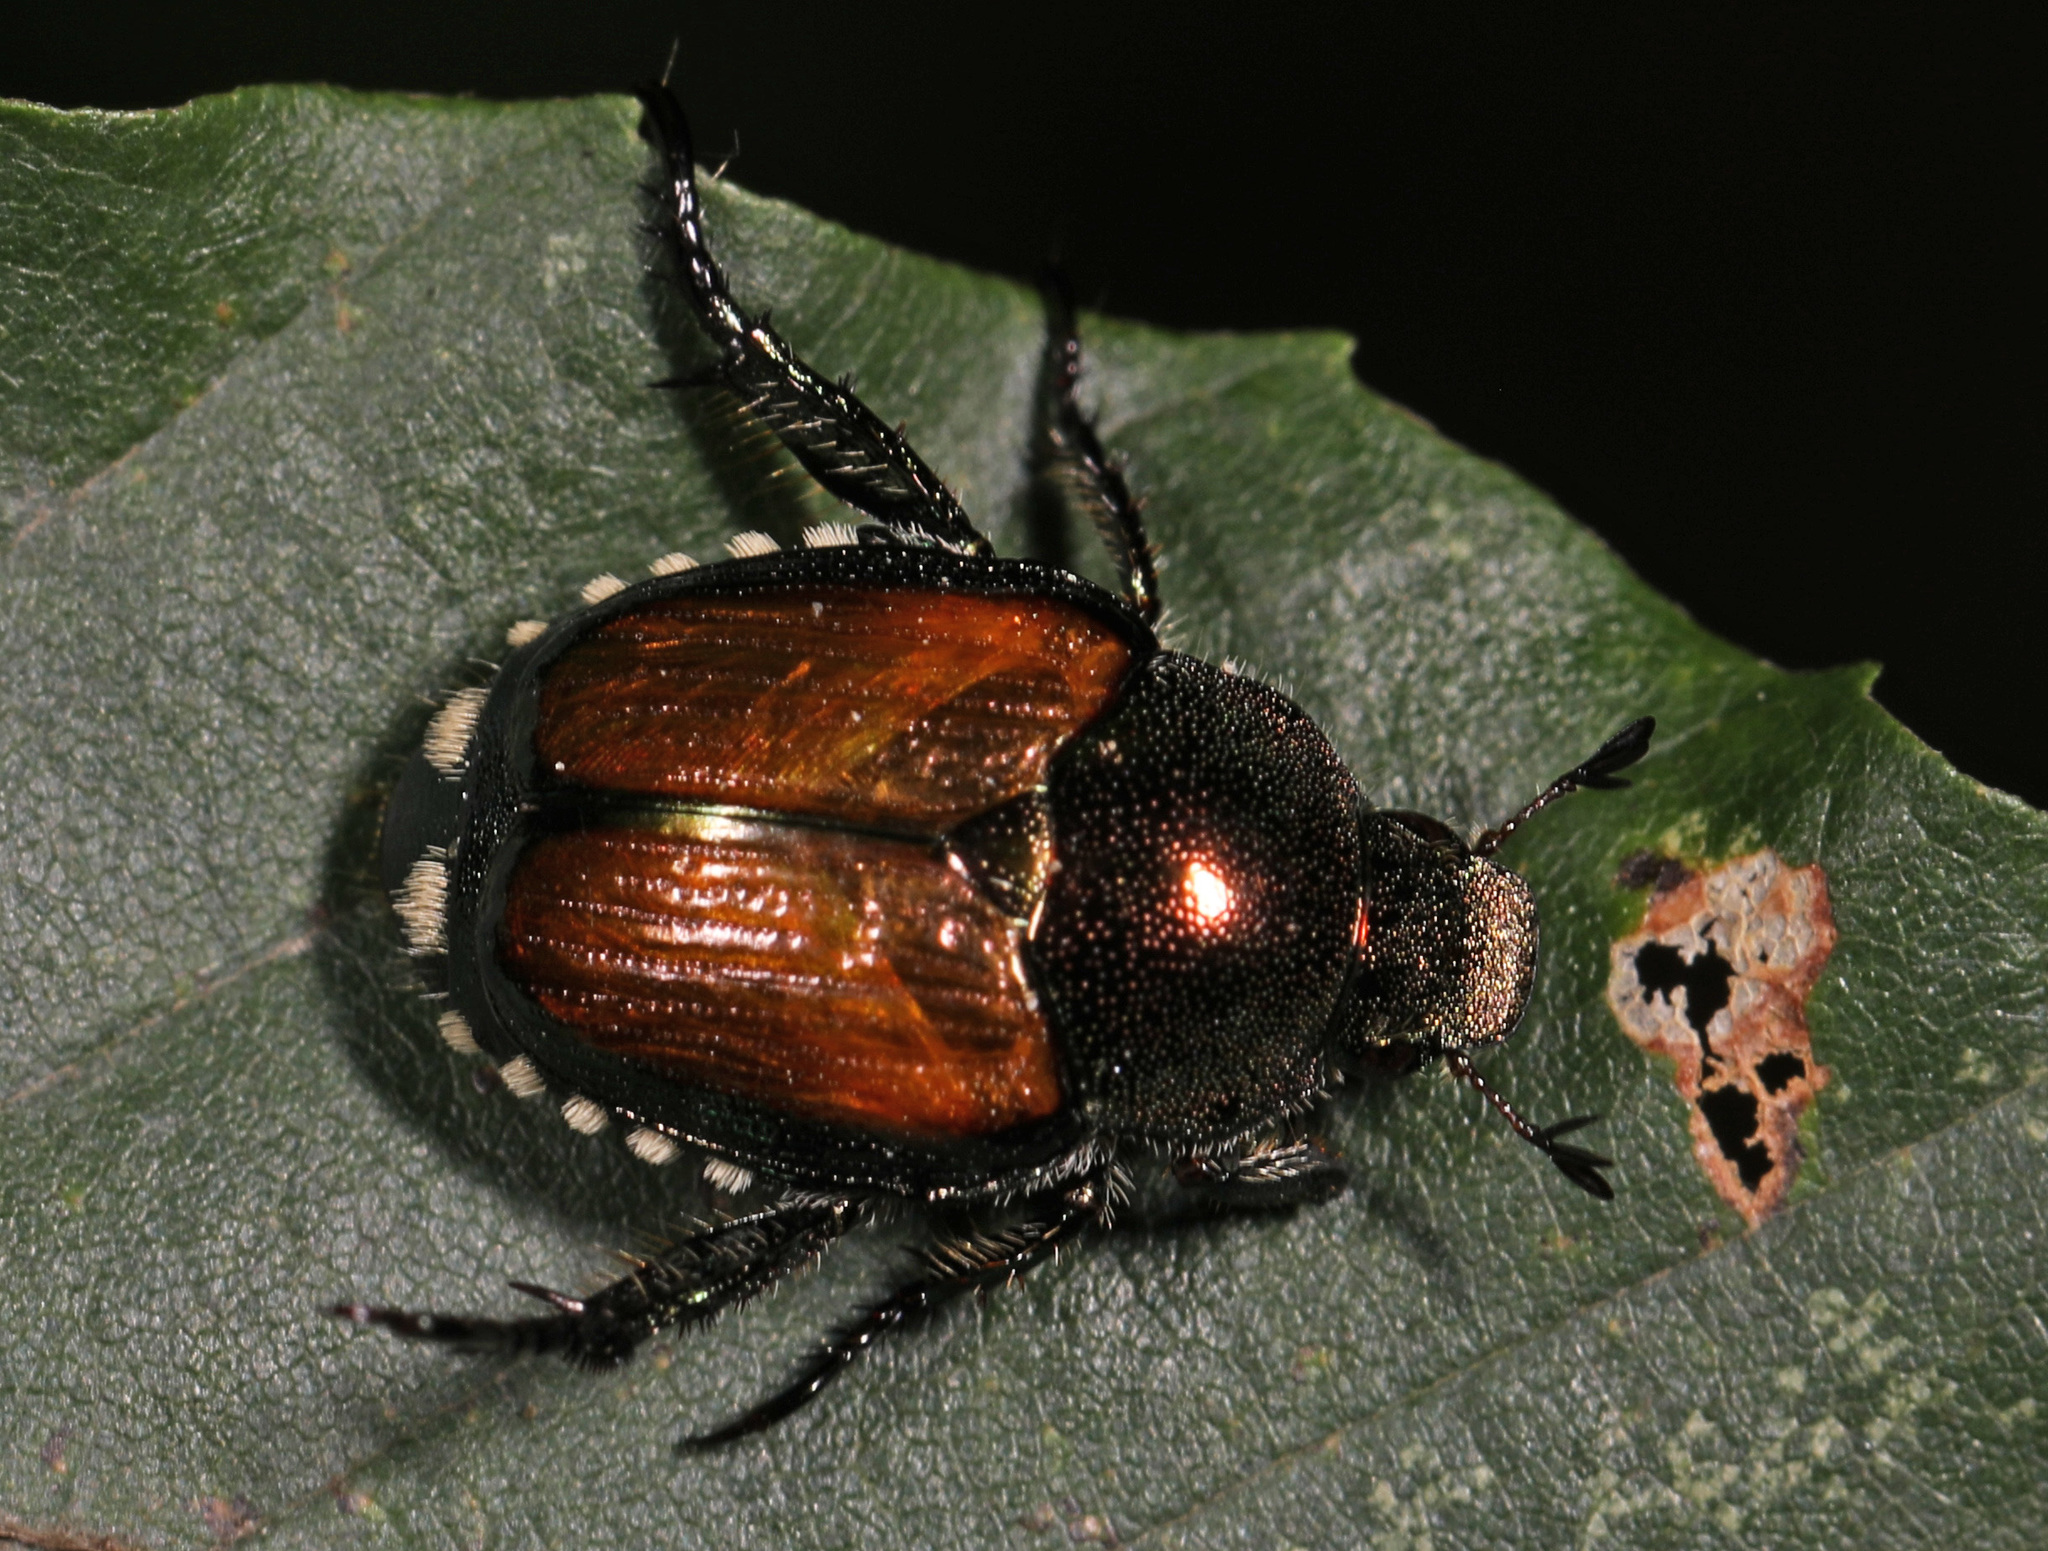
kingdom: Animalia
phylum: Arthropoda
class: Insecta
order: Coleoptera
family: Scarabaeidae
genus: Popillia
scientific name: Popillia japonica
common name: Japanese beetle
